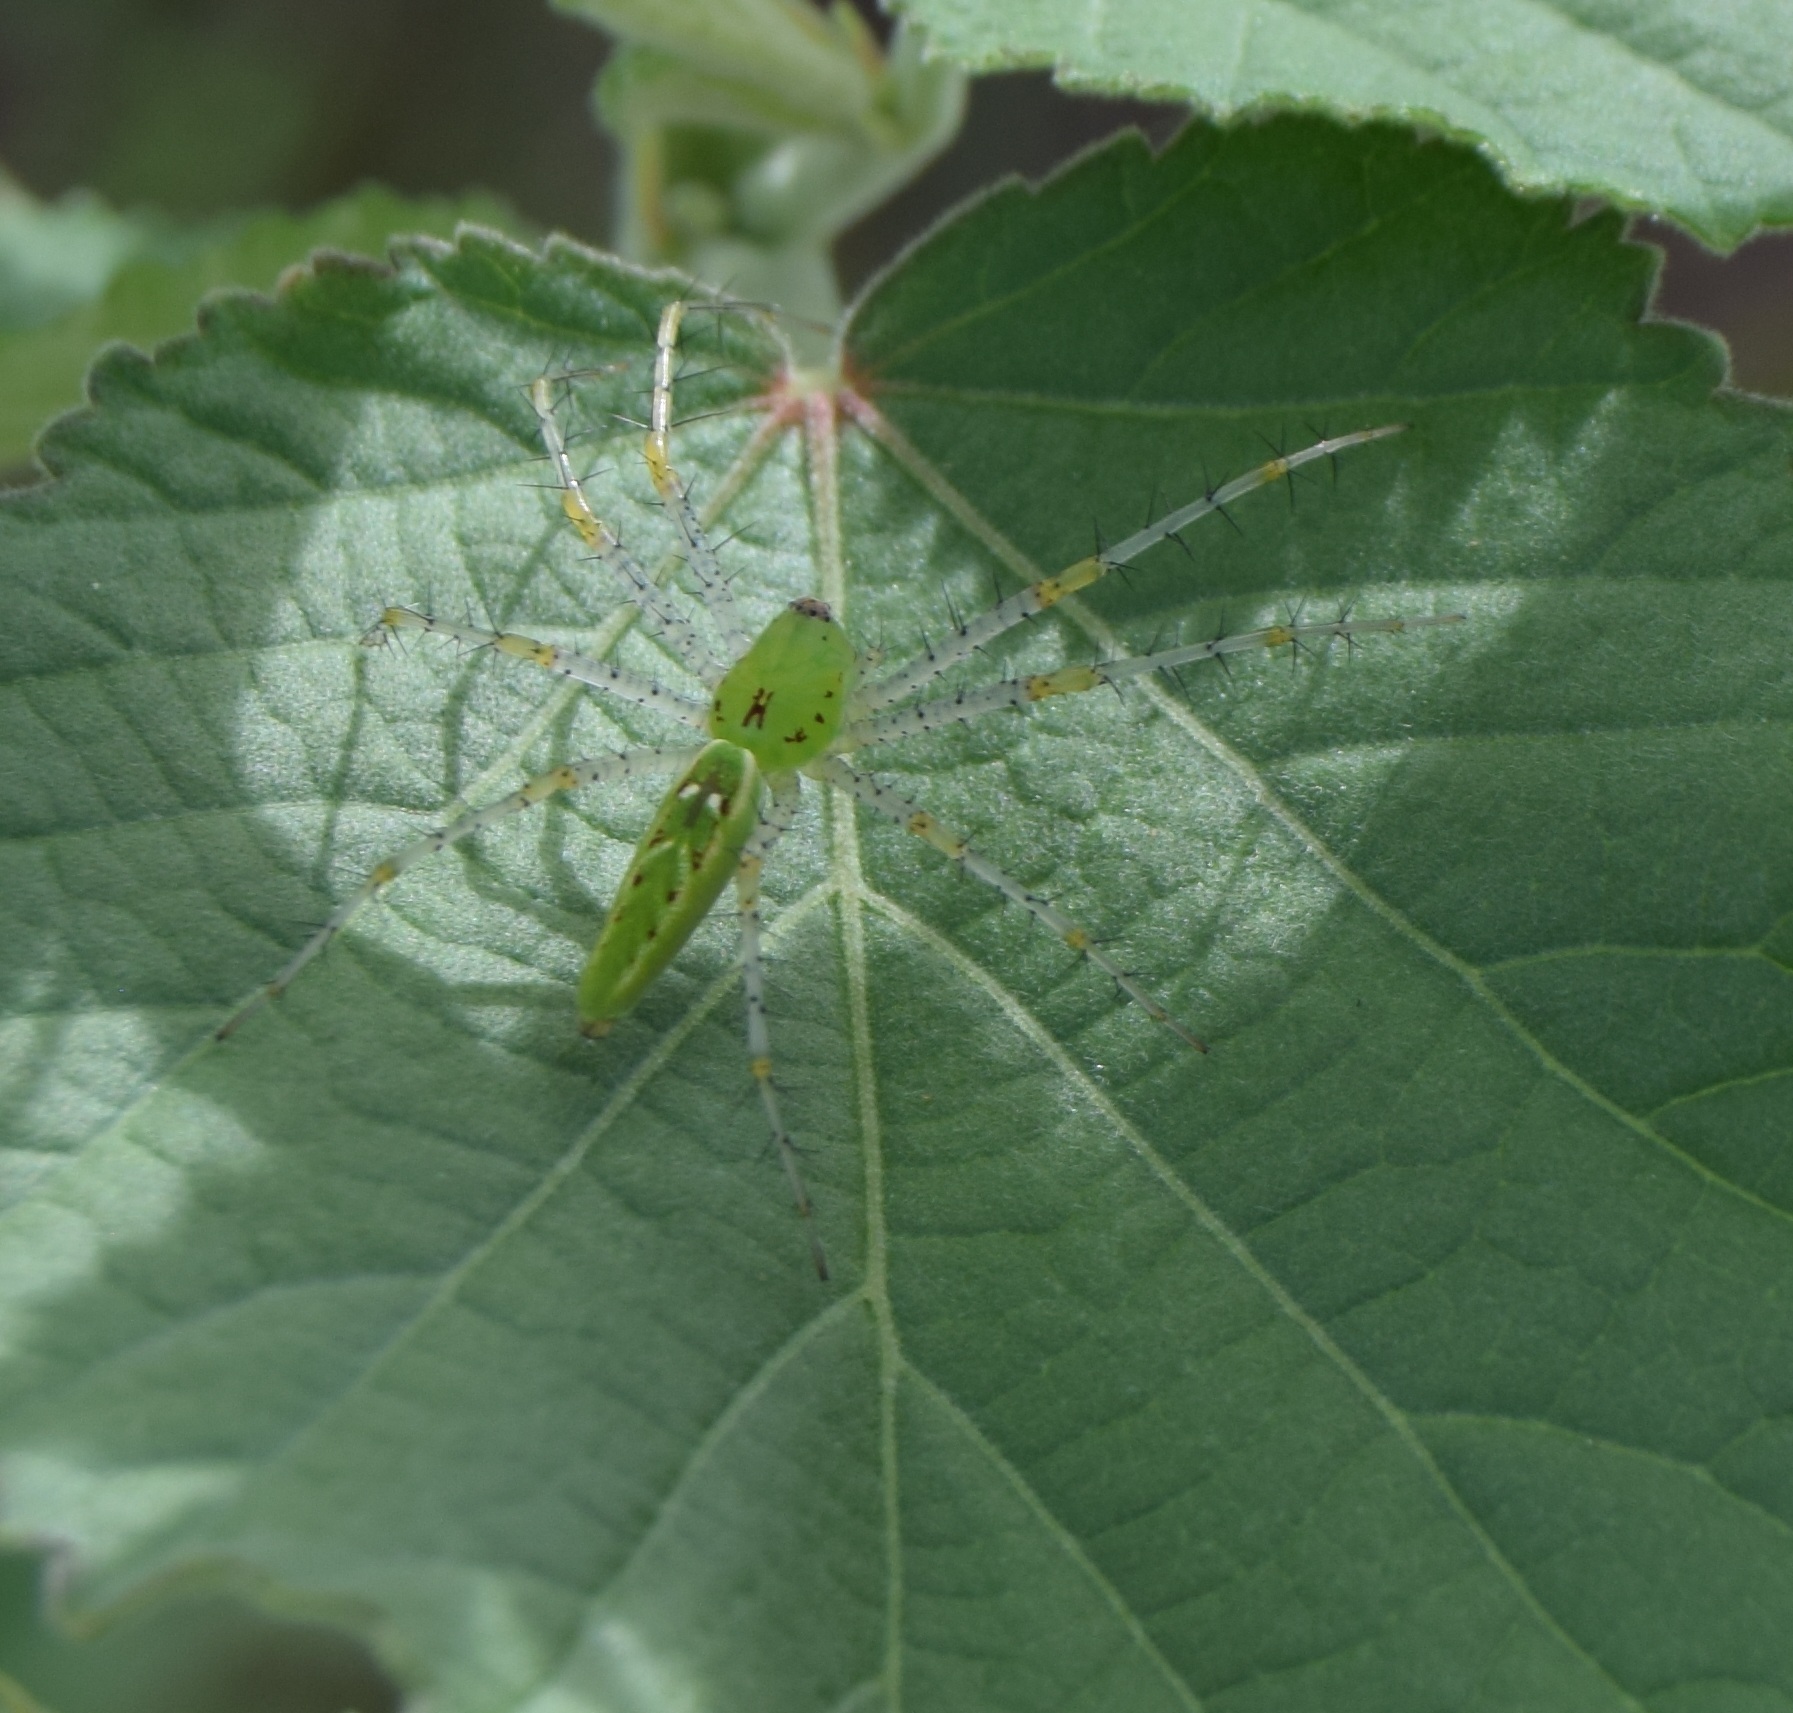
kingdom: Animalia
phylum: Arthropoda
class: Arachnida
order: Araneae
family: Oxyopidae
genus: Peucetia
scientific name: Peucetia viridans
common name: Lynx spiders
